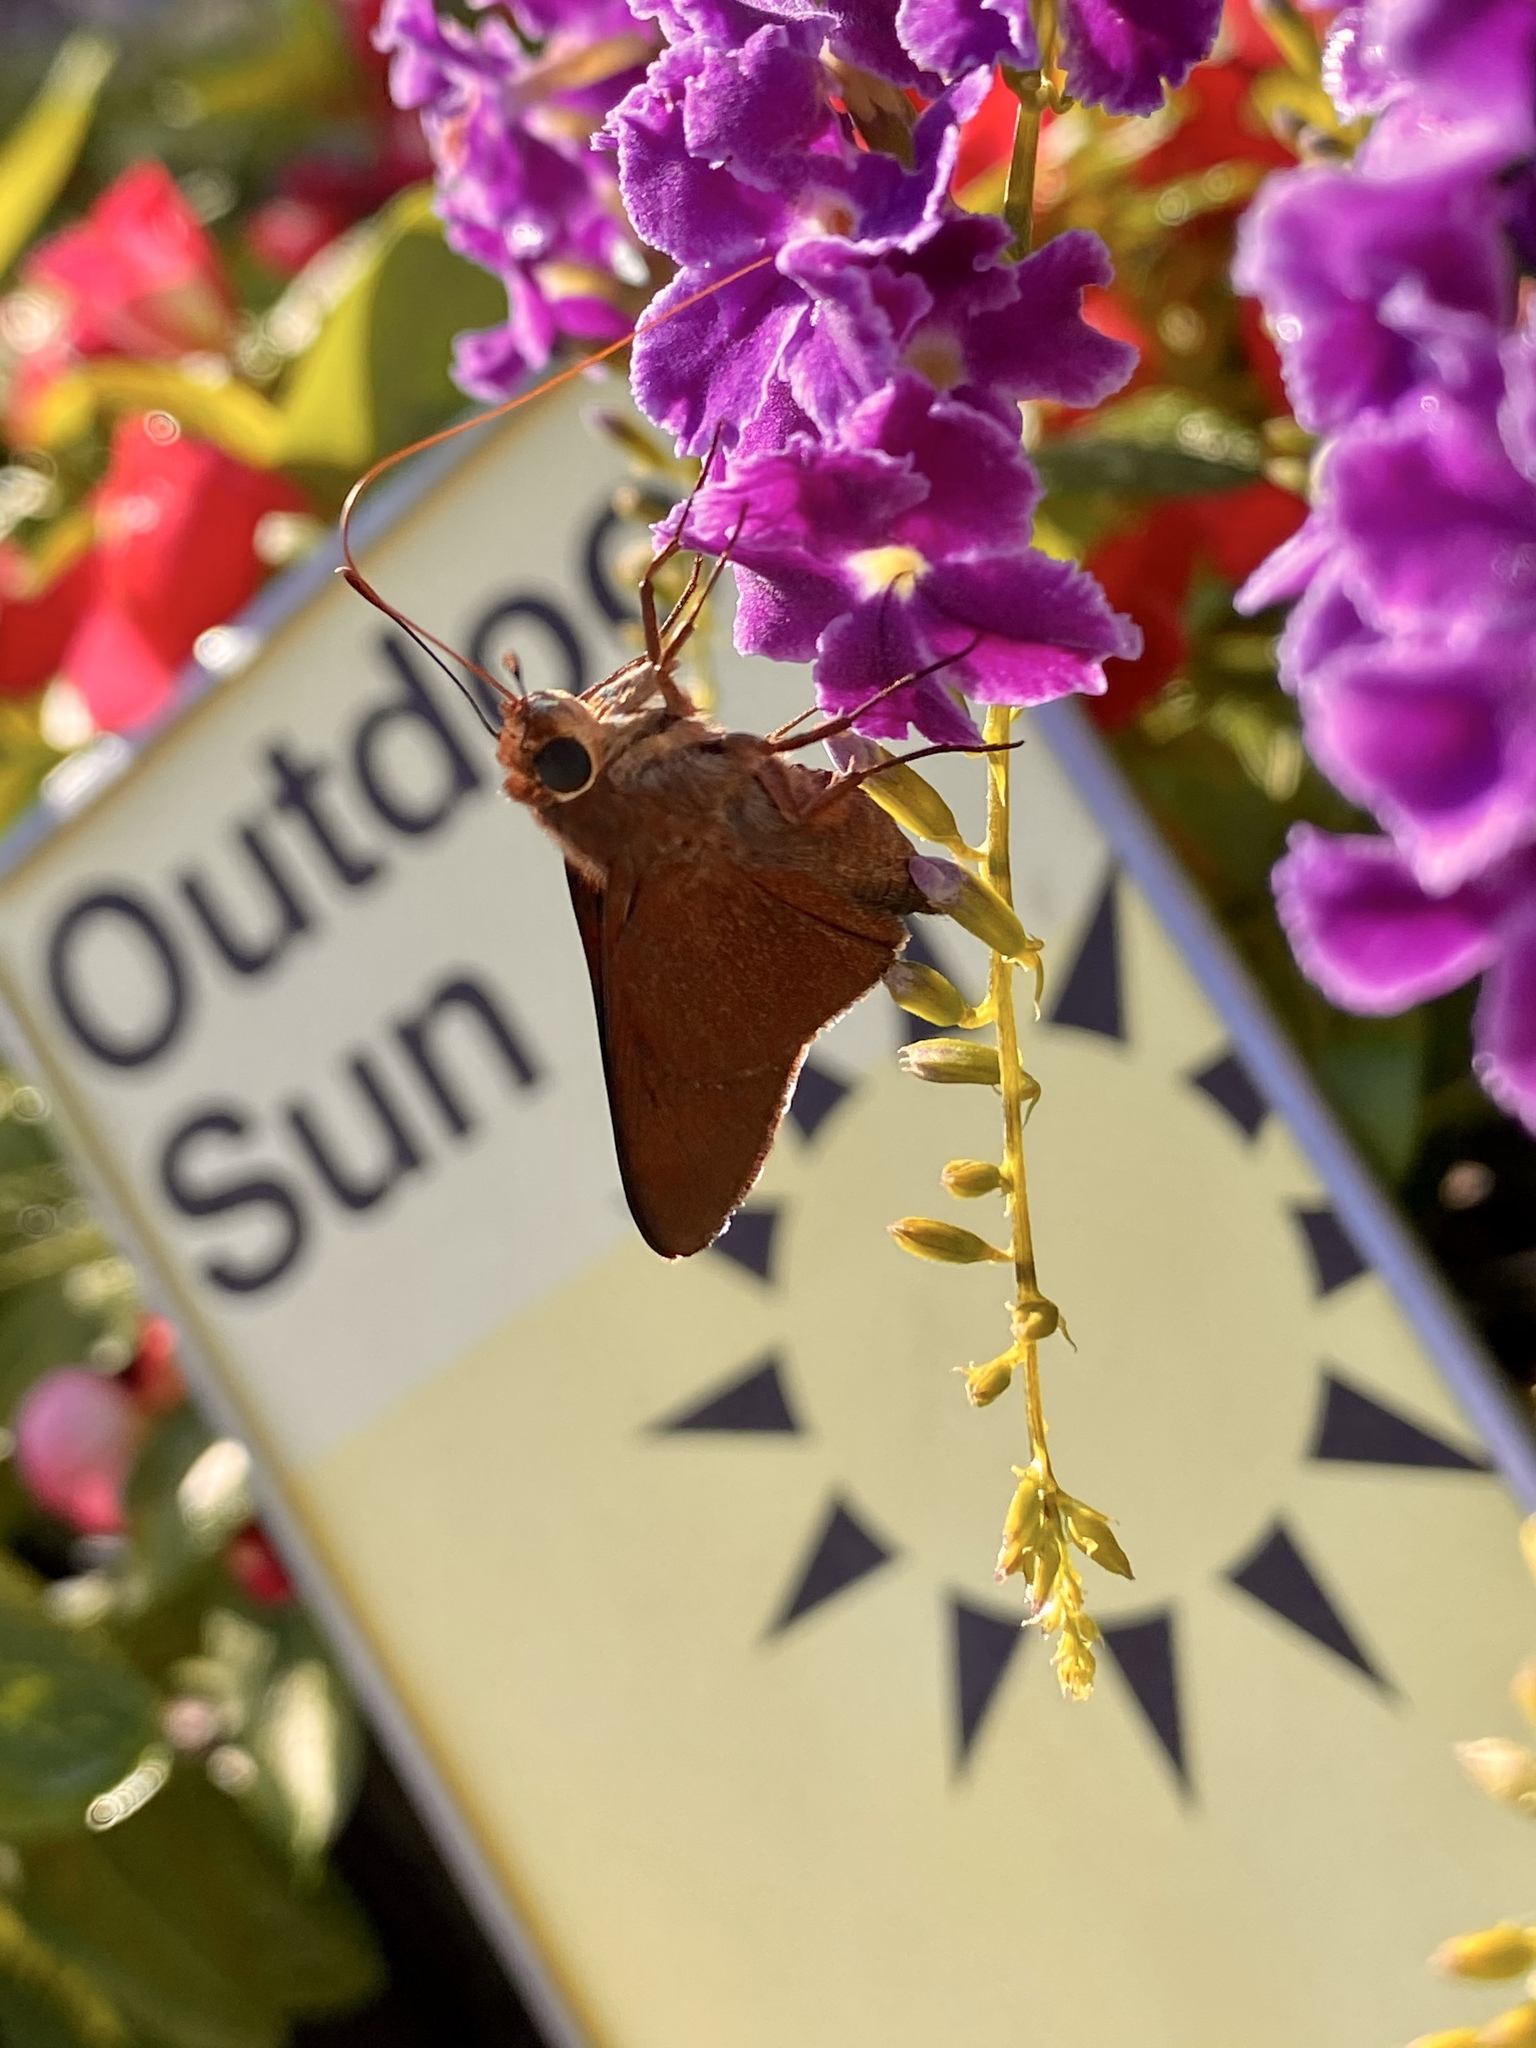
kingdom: Animalia
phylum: Arthropoda
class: Insecta
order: Lepidoptera
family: Hesperiidae
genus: Asbolis
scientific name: Asbolis capucinus
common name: Monk skipper
